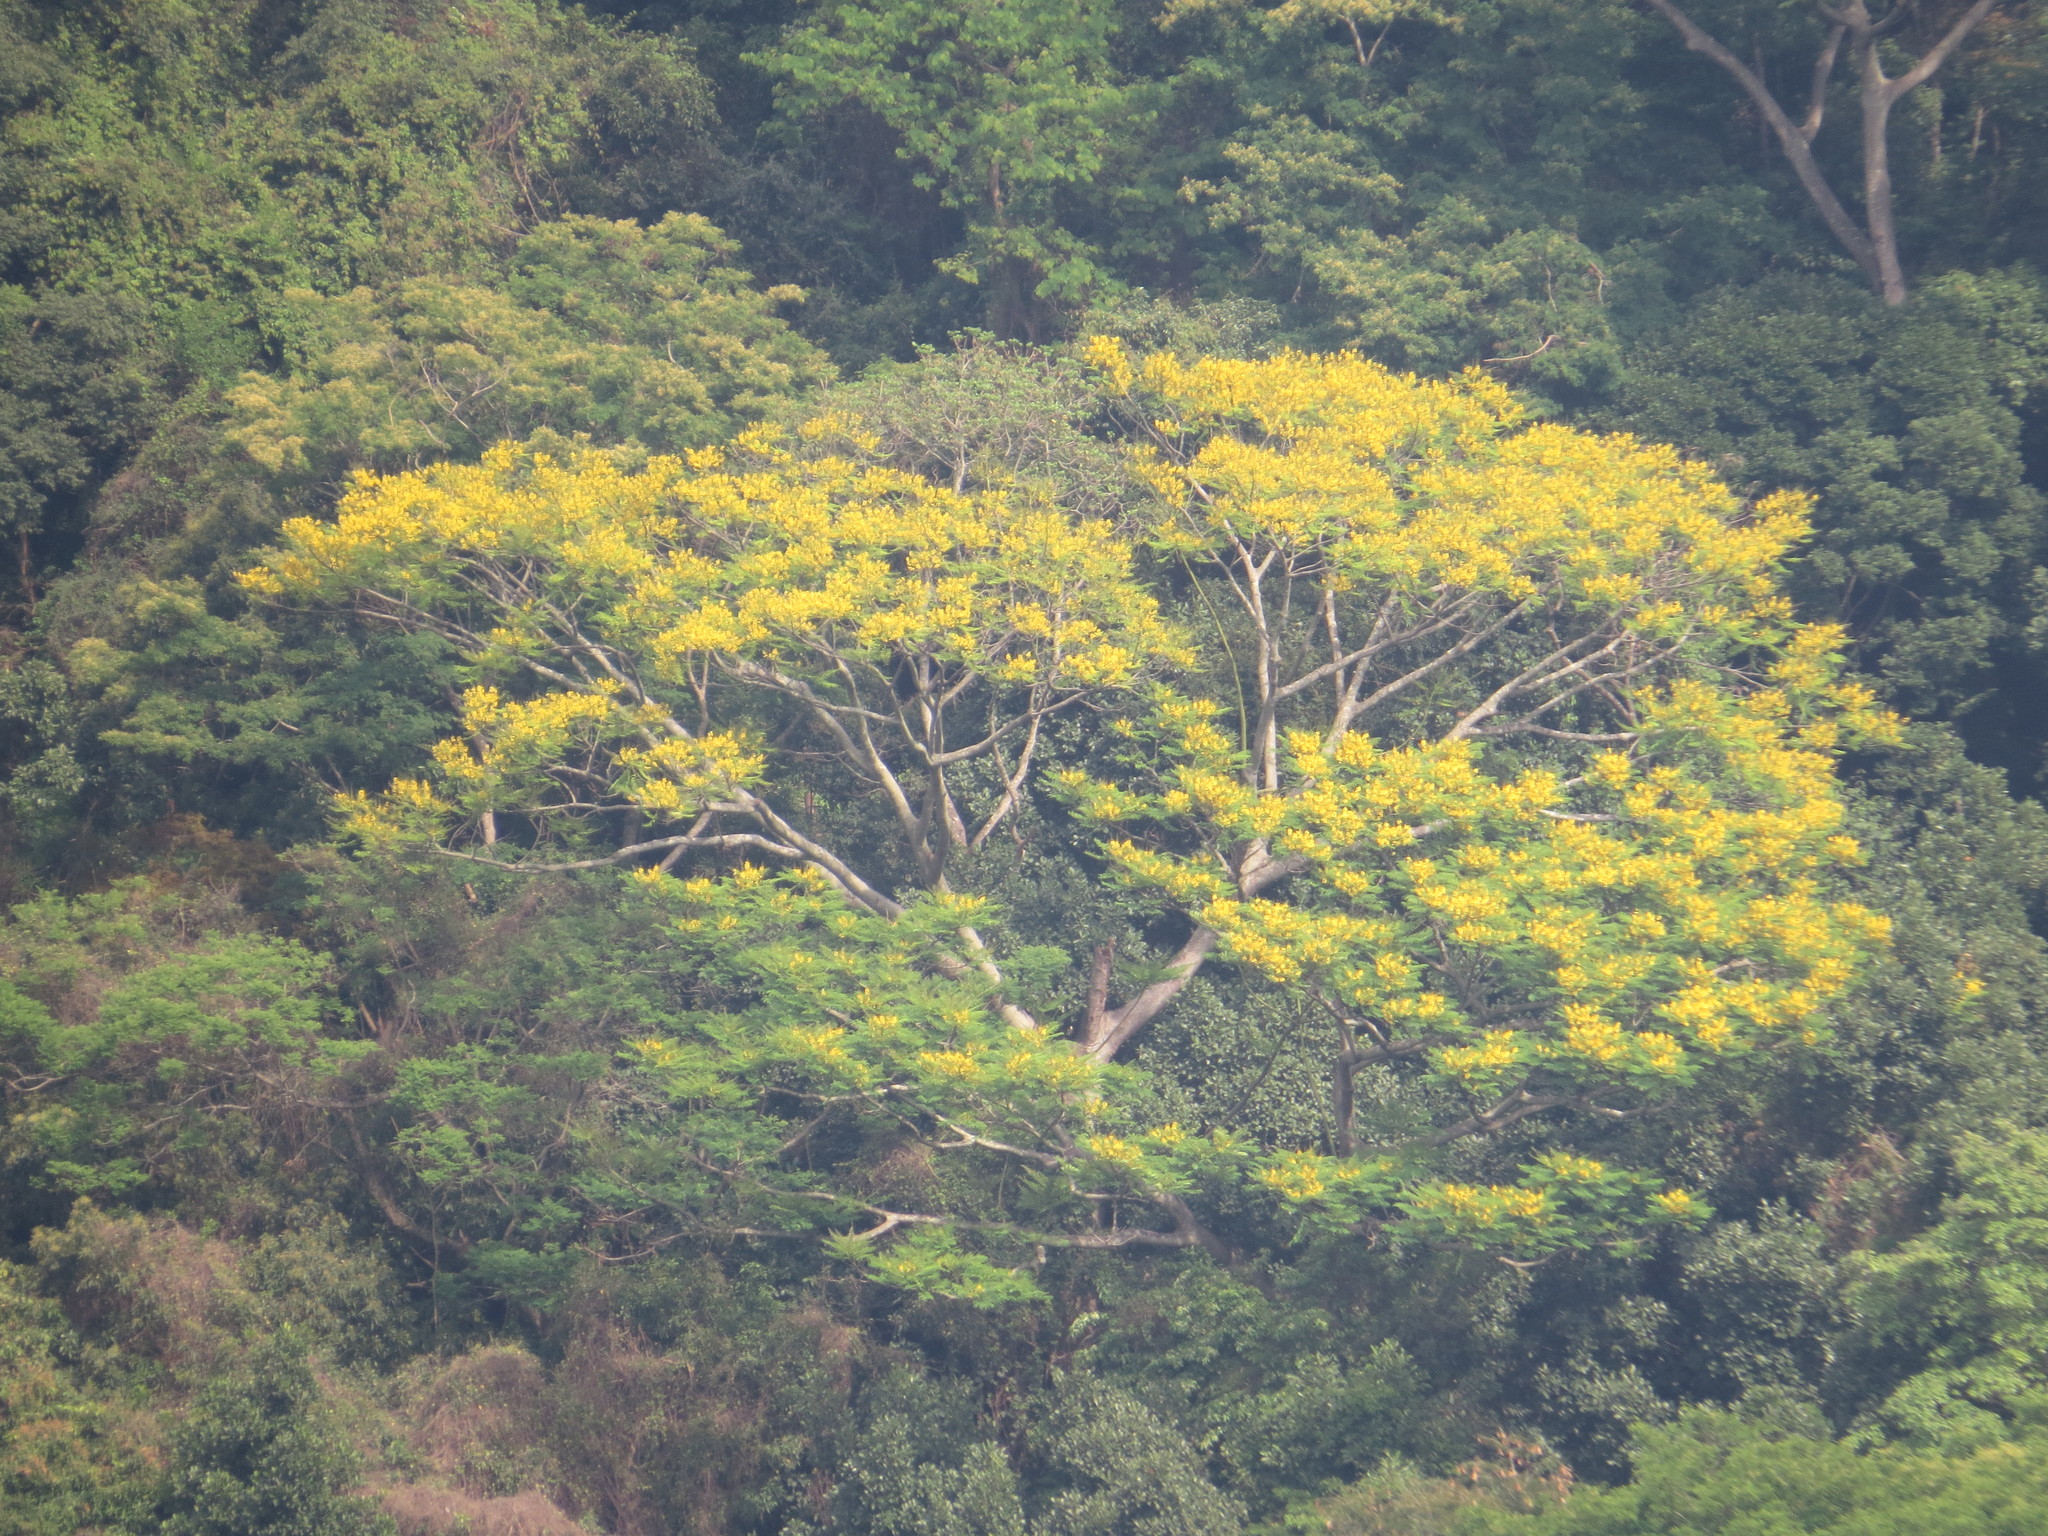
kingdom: Plantae
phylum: Tracheophyta
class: Magnoliopsida
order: Fabales
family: Fabaceae
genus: Schizolobium
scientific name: Schizolobium parahyba
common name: Brazilian firetree
